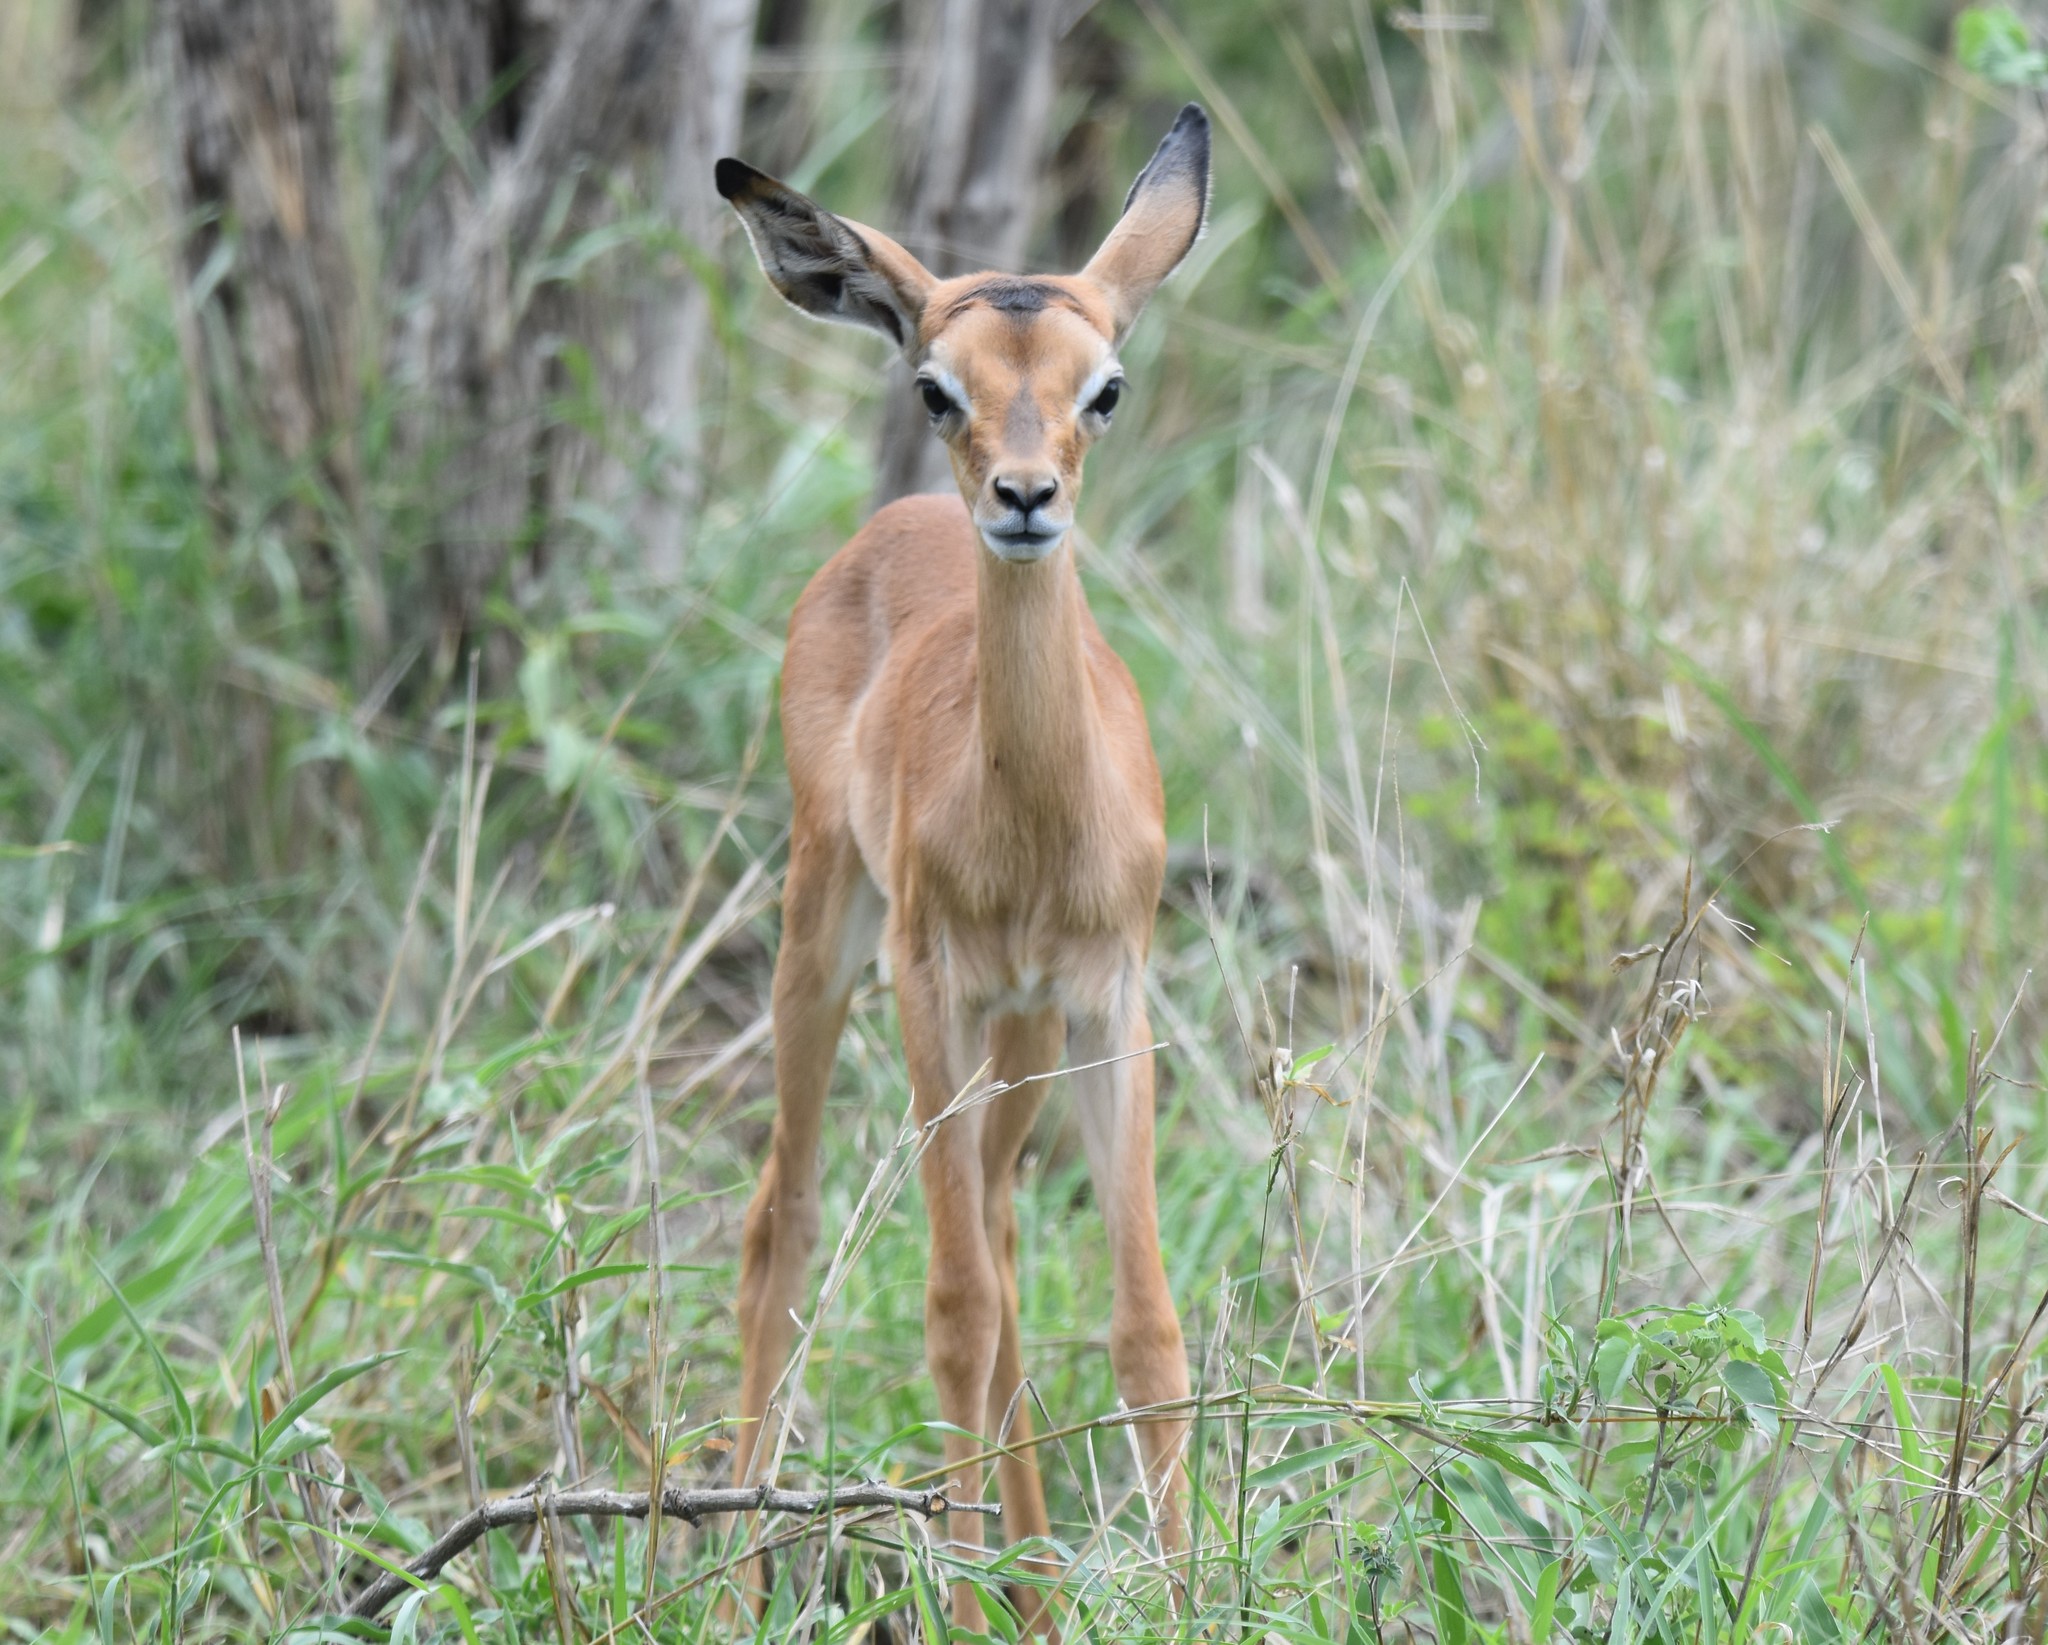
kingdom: Animalia
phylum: Chordata
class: Mammalia
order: Artiodactyla
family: Bovidae
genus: Aepyceros
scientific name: Aepyceros melampus
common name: Impala
